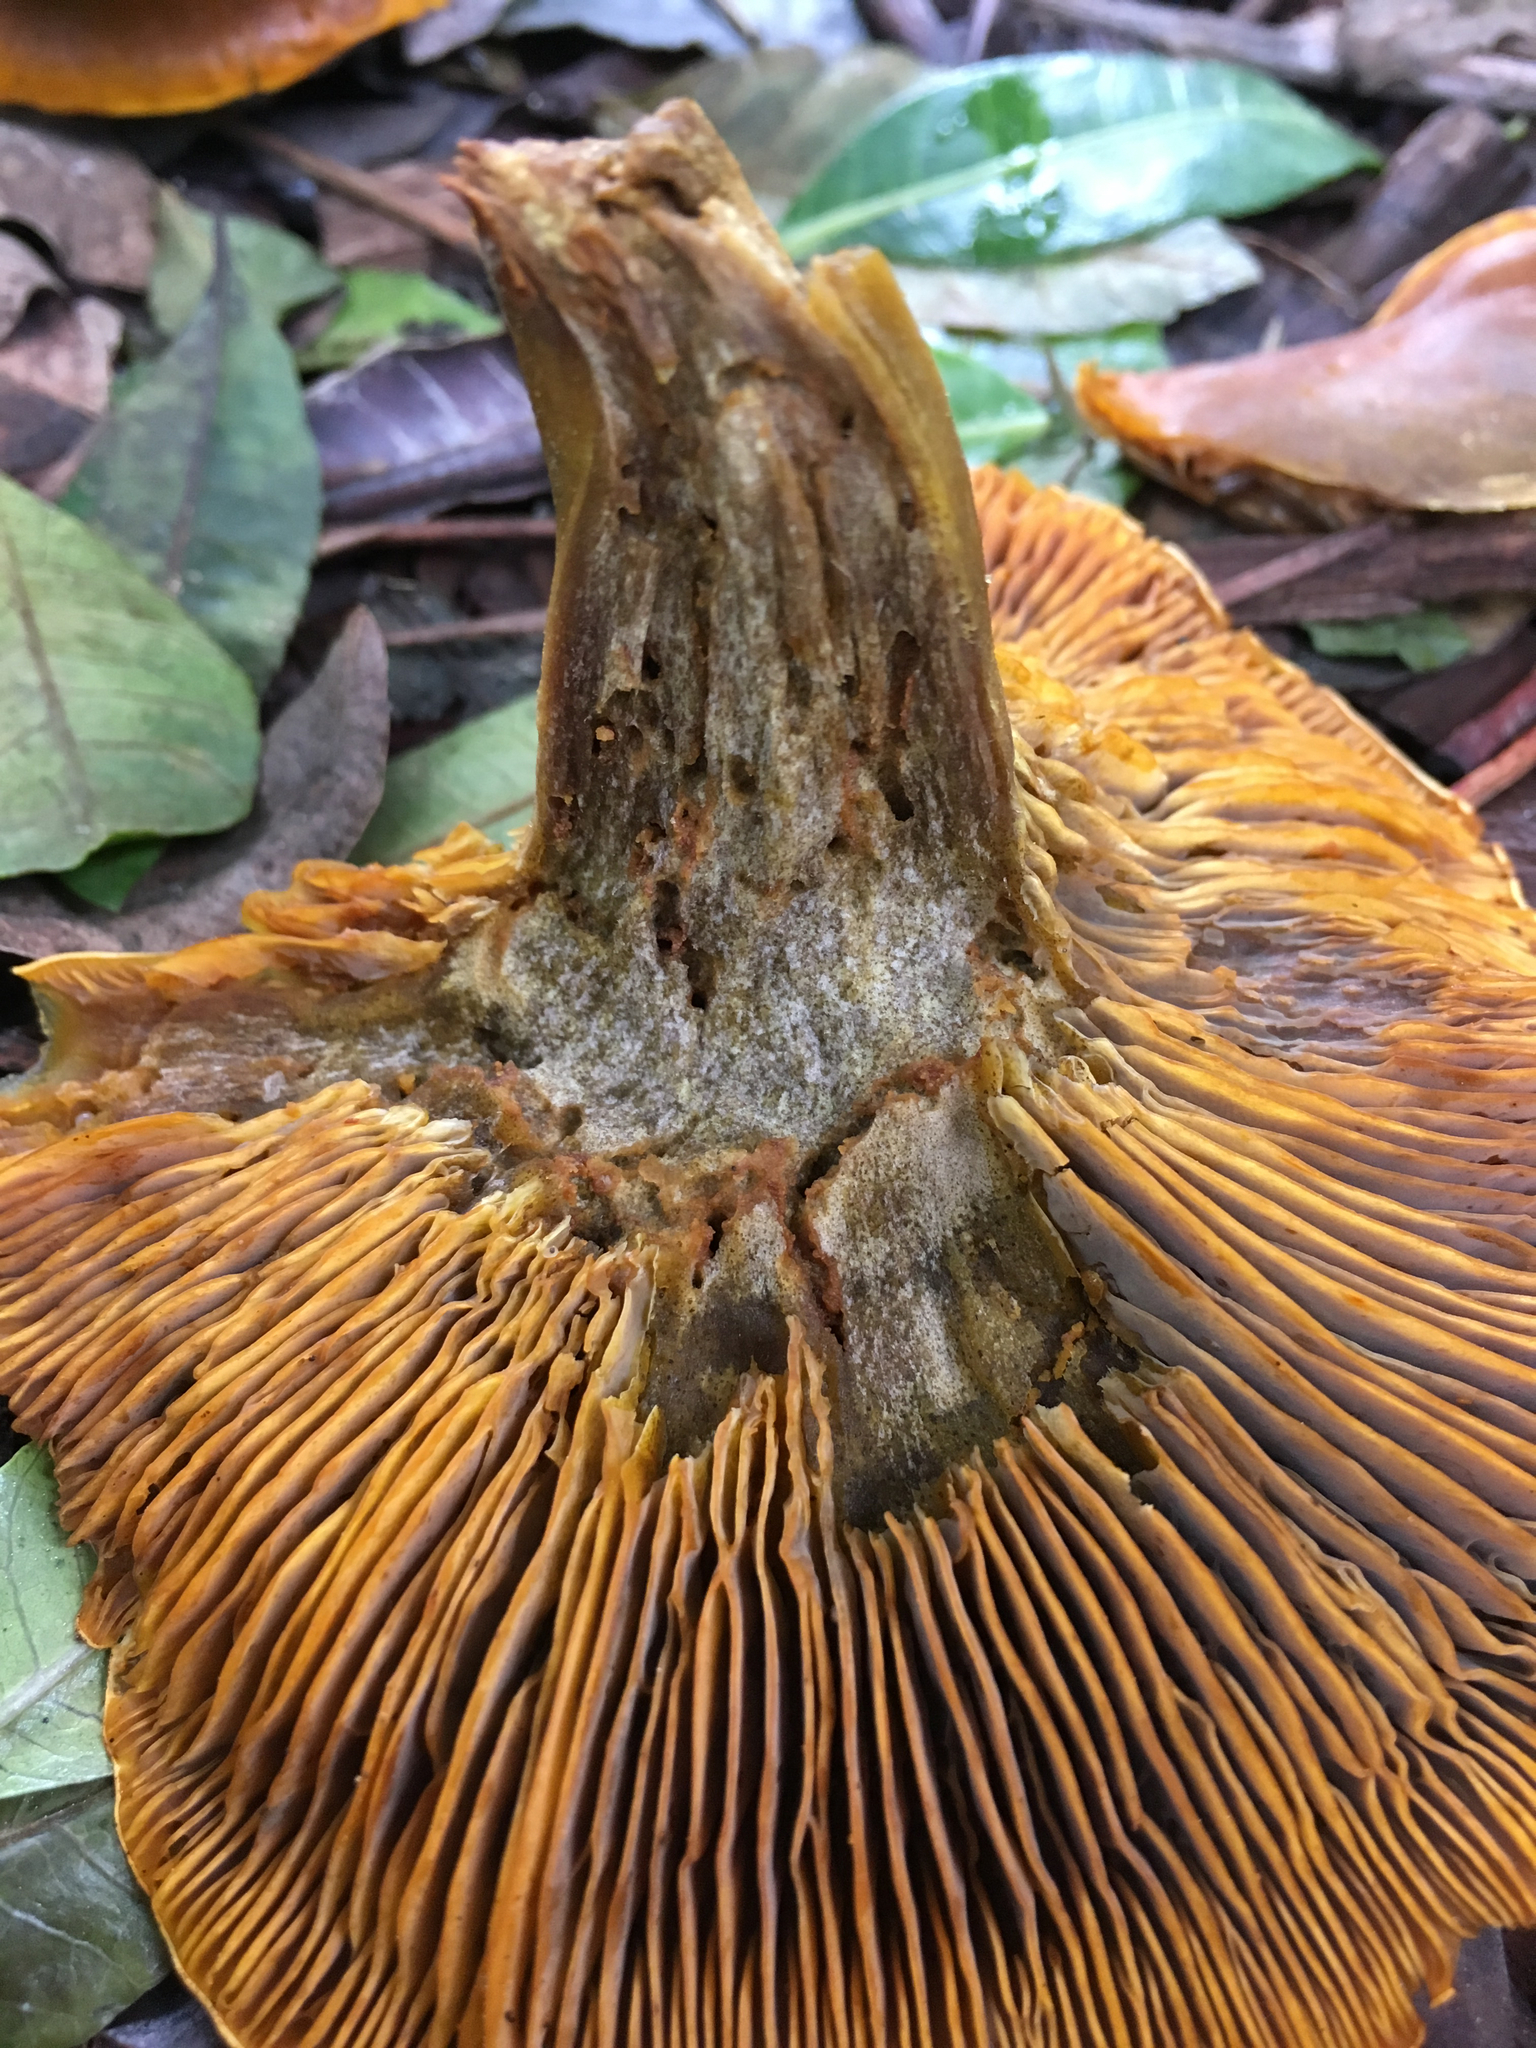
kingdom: Fungi
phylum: Basidiomycota
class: Agaricomycetes
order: Agaricales
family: Omphalotaceae
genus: Omphalotus
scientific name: Omphalotus olivascens
